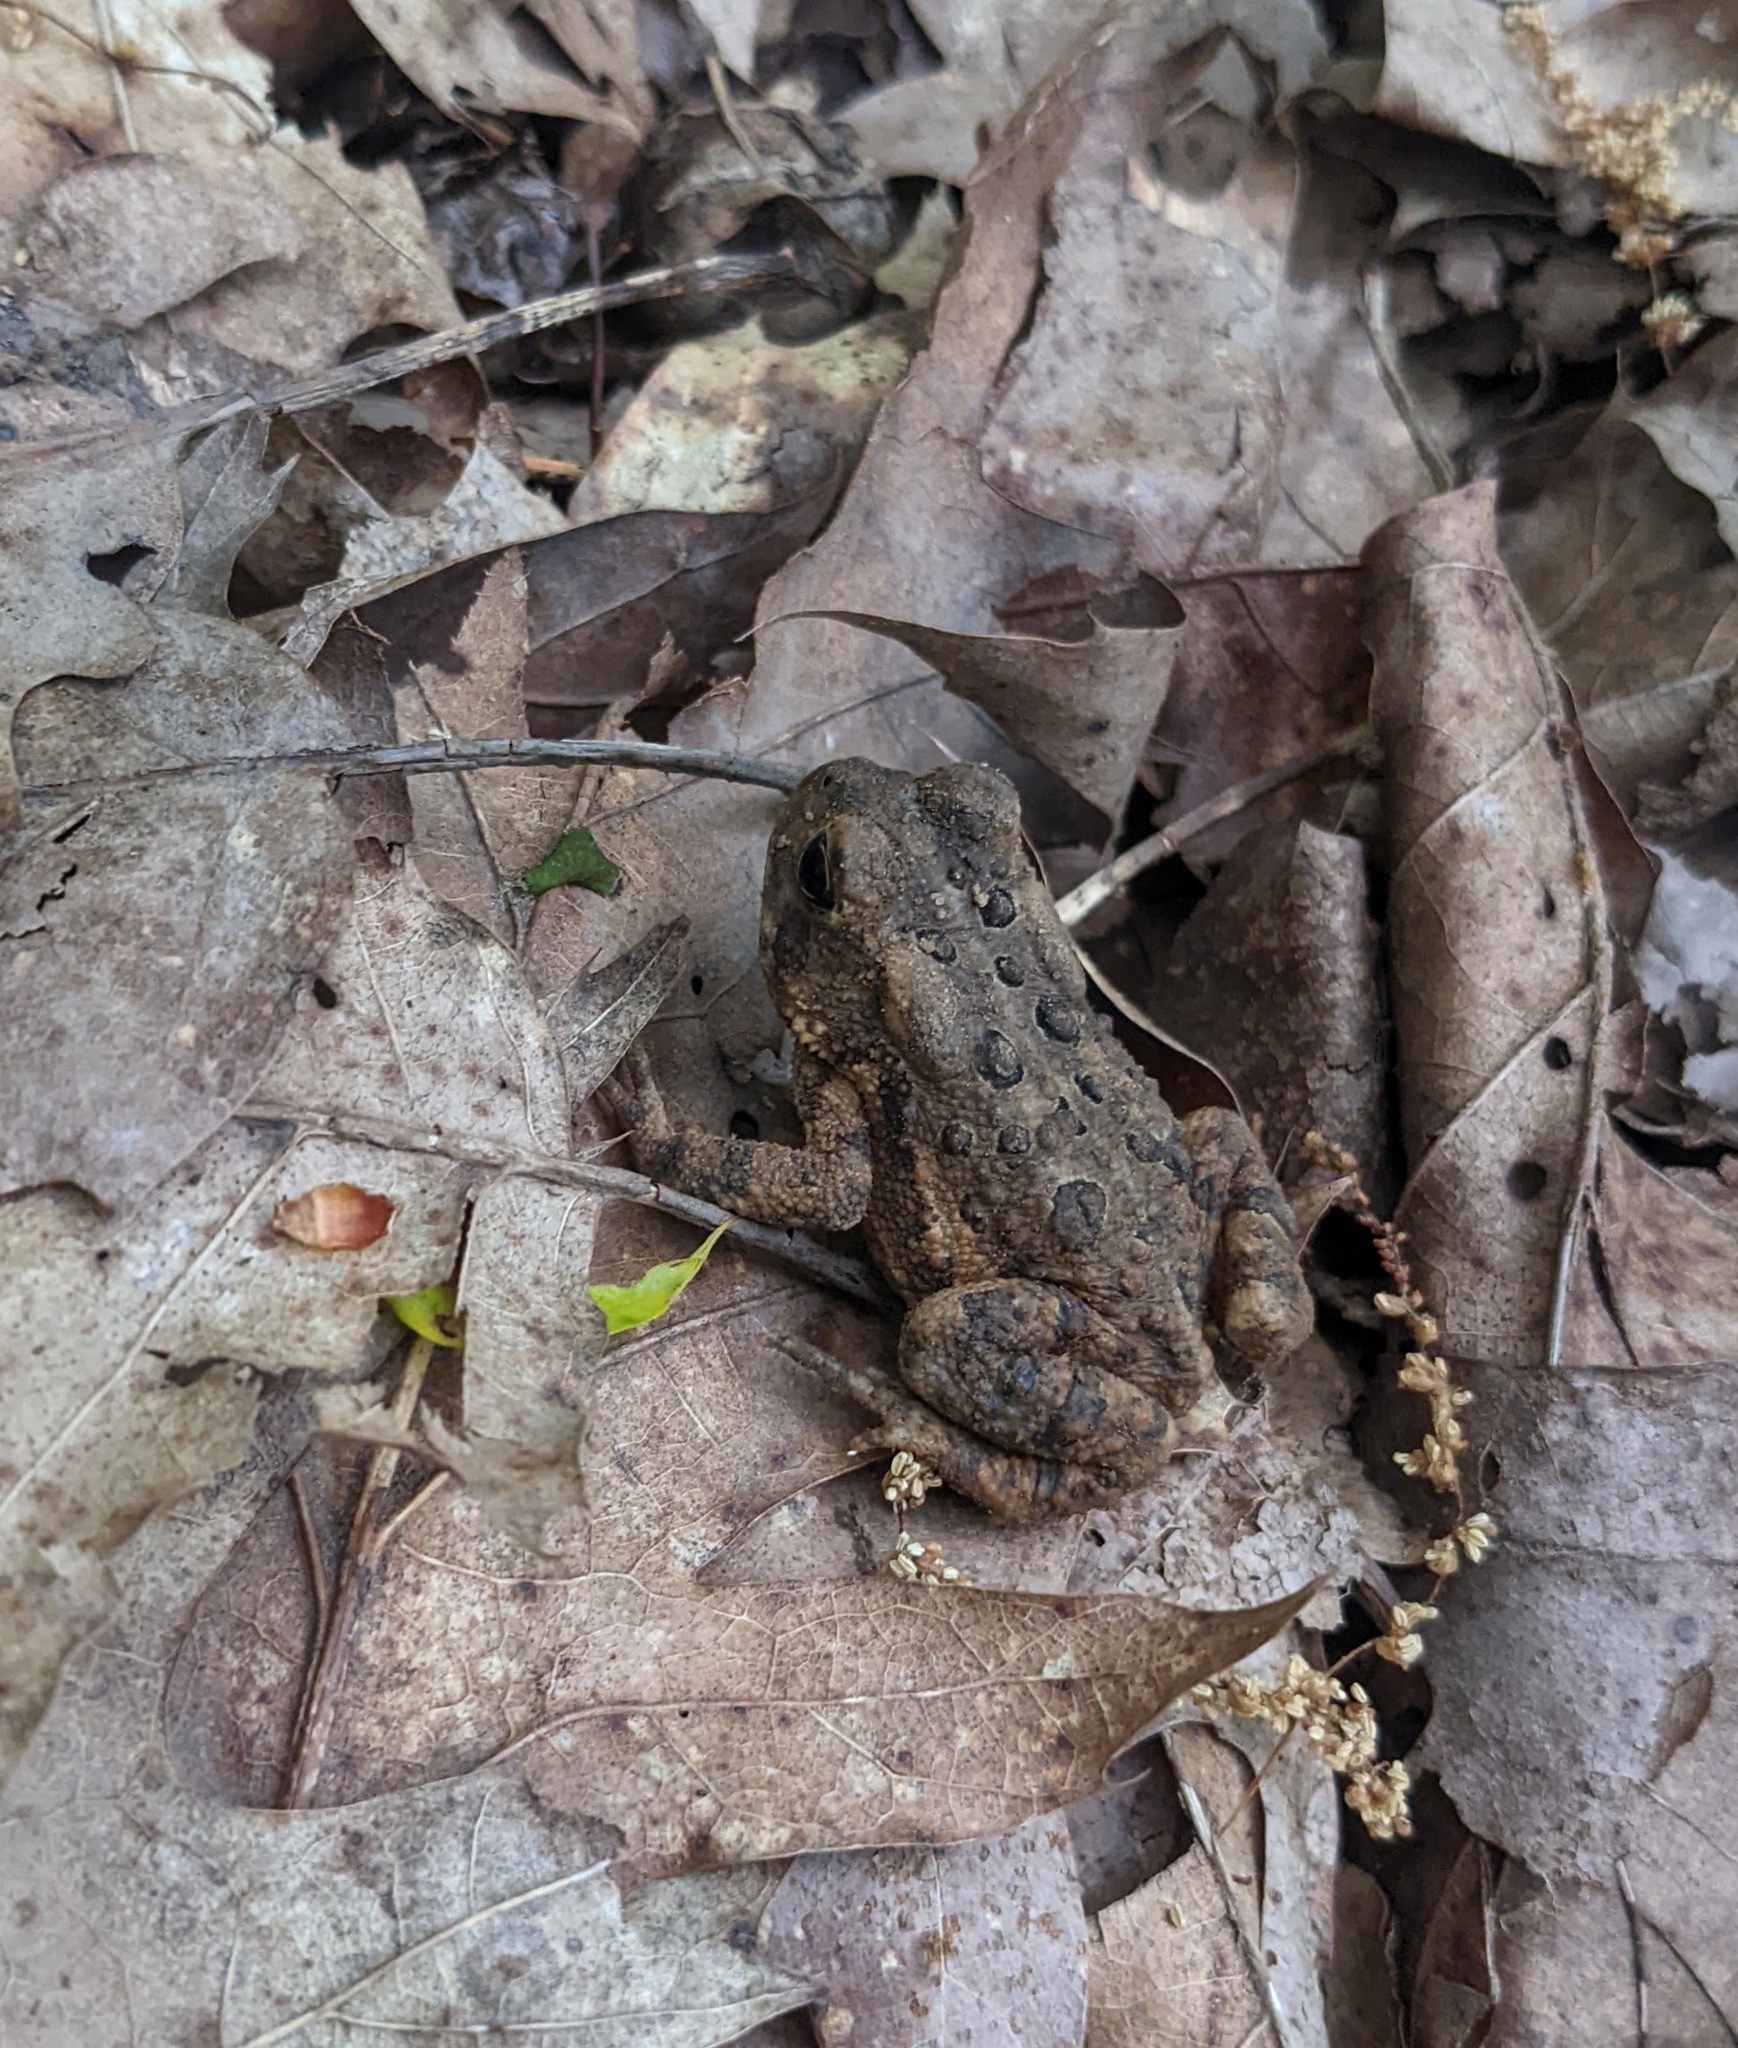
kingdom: Animalia
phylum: Chordata
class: Amphibia
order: Anura
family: Bufonidae
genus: Anaxyrus
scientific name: Anaxyrus americanus
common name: American toad
